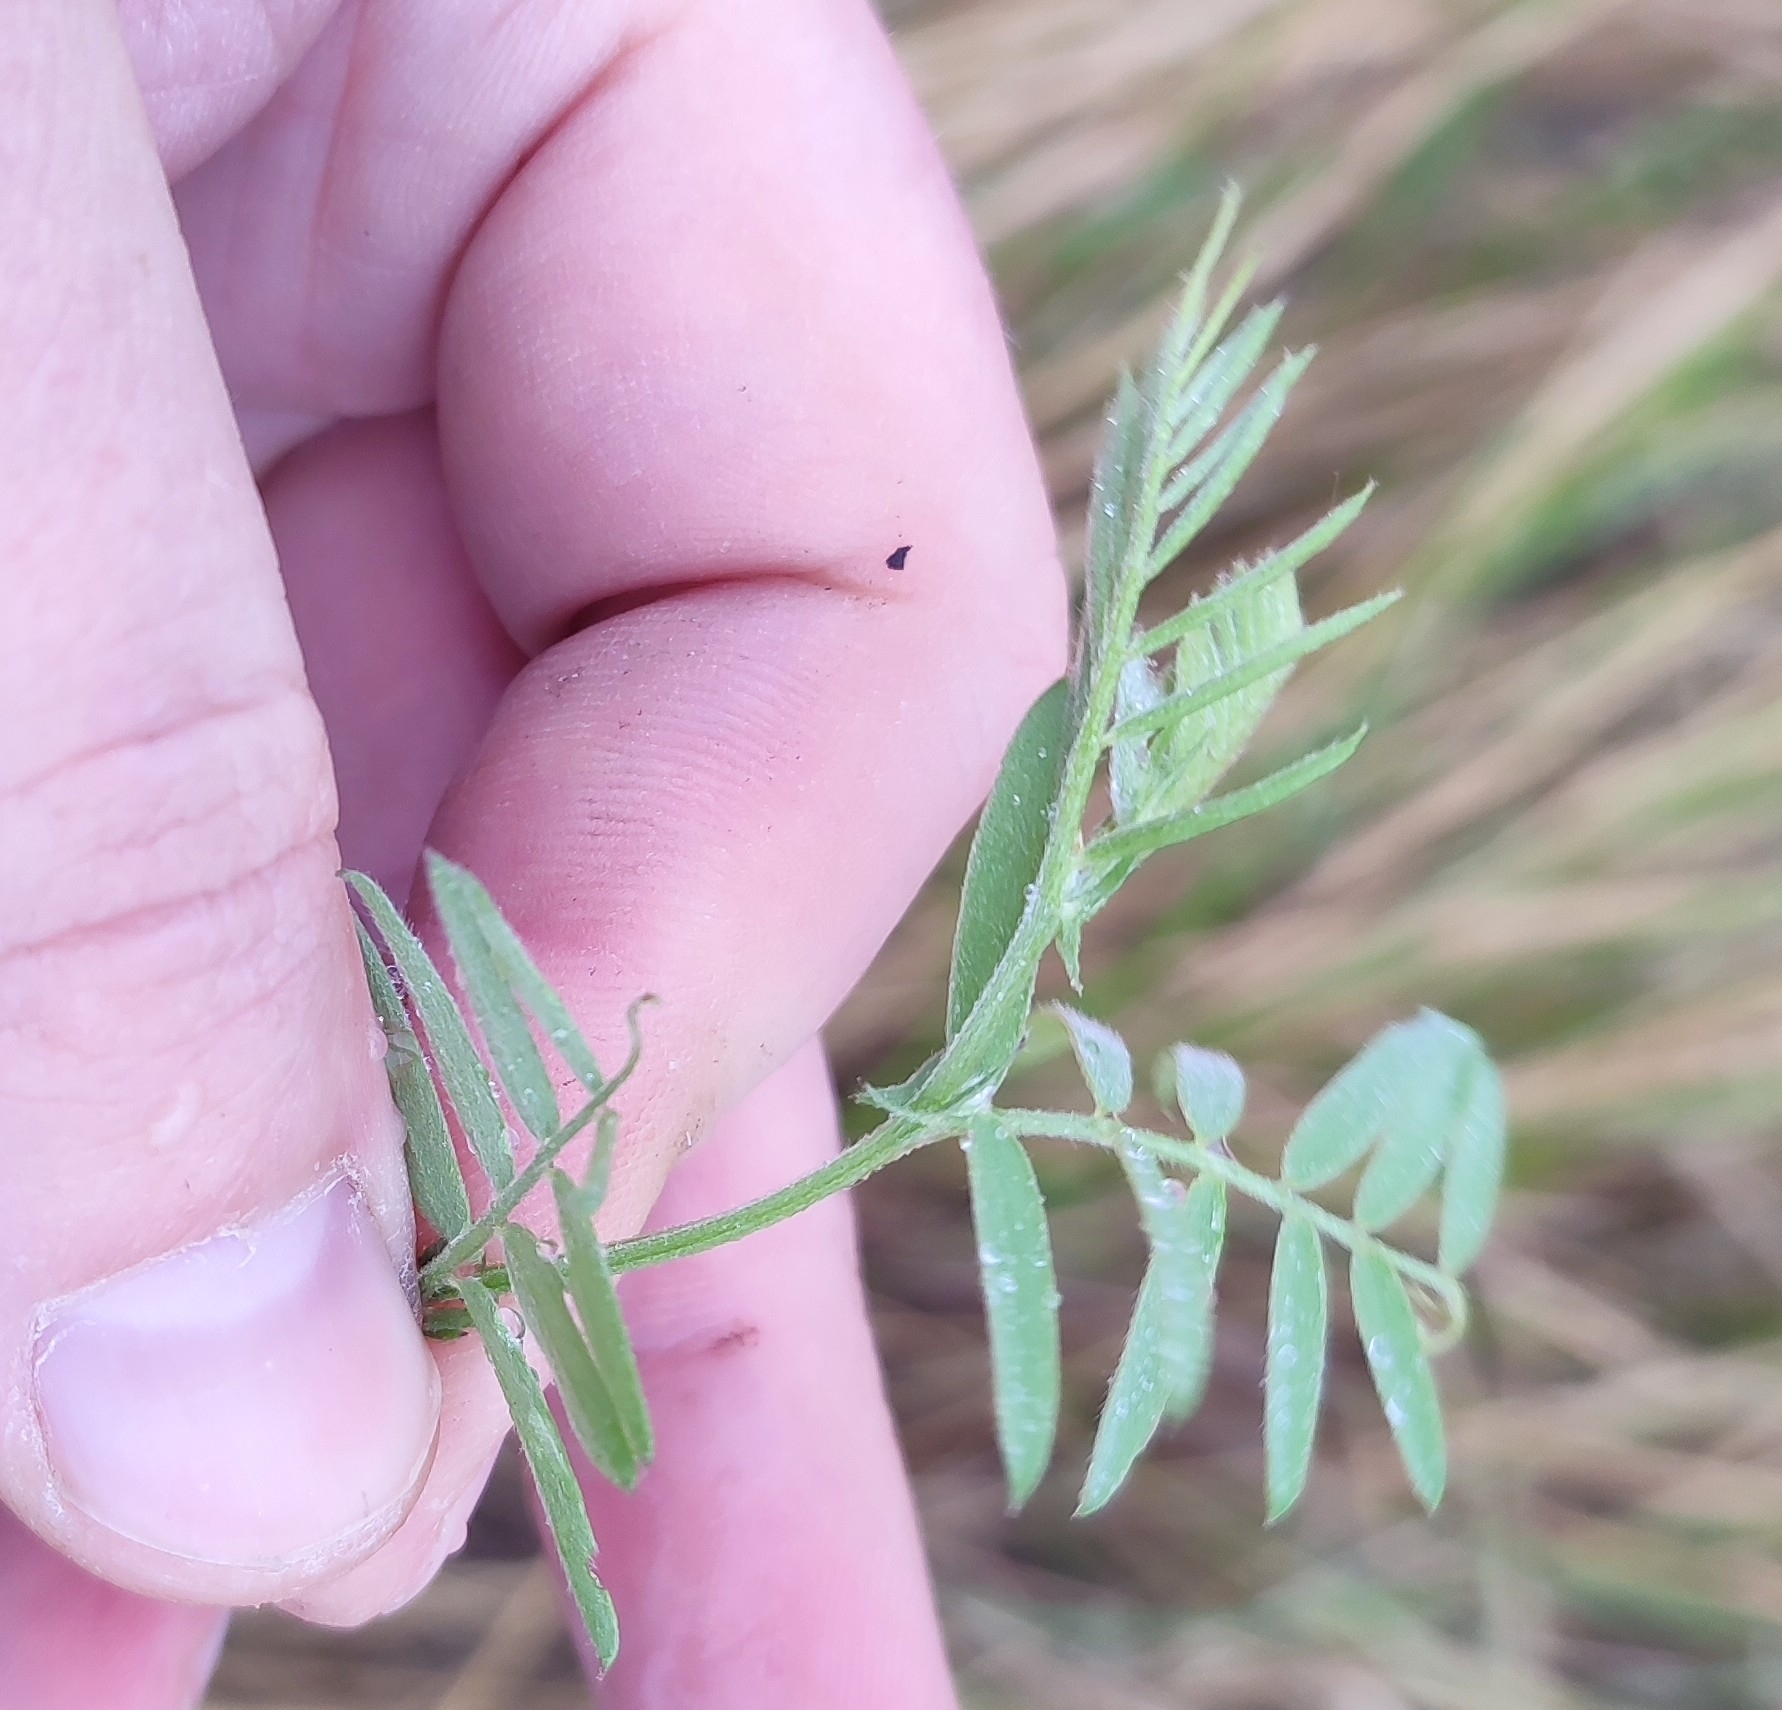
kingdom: Plantae
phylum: Tracheophyta
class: Magnoliopsida
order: Fabales
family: Fabaceae
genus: Vicia
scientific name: Vicia cracca
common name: Bird vetch
